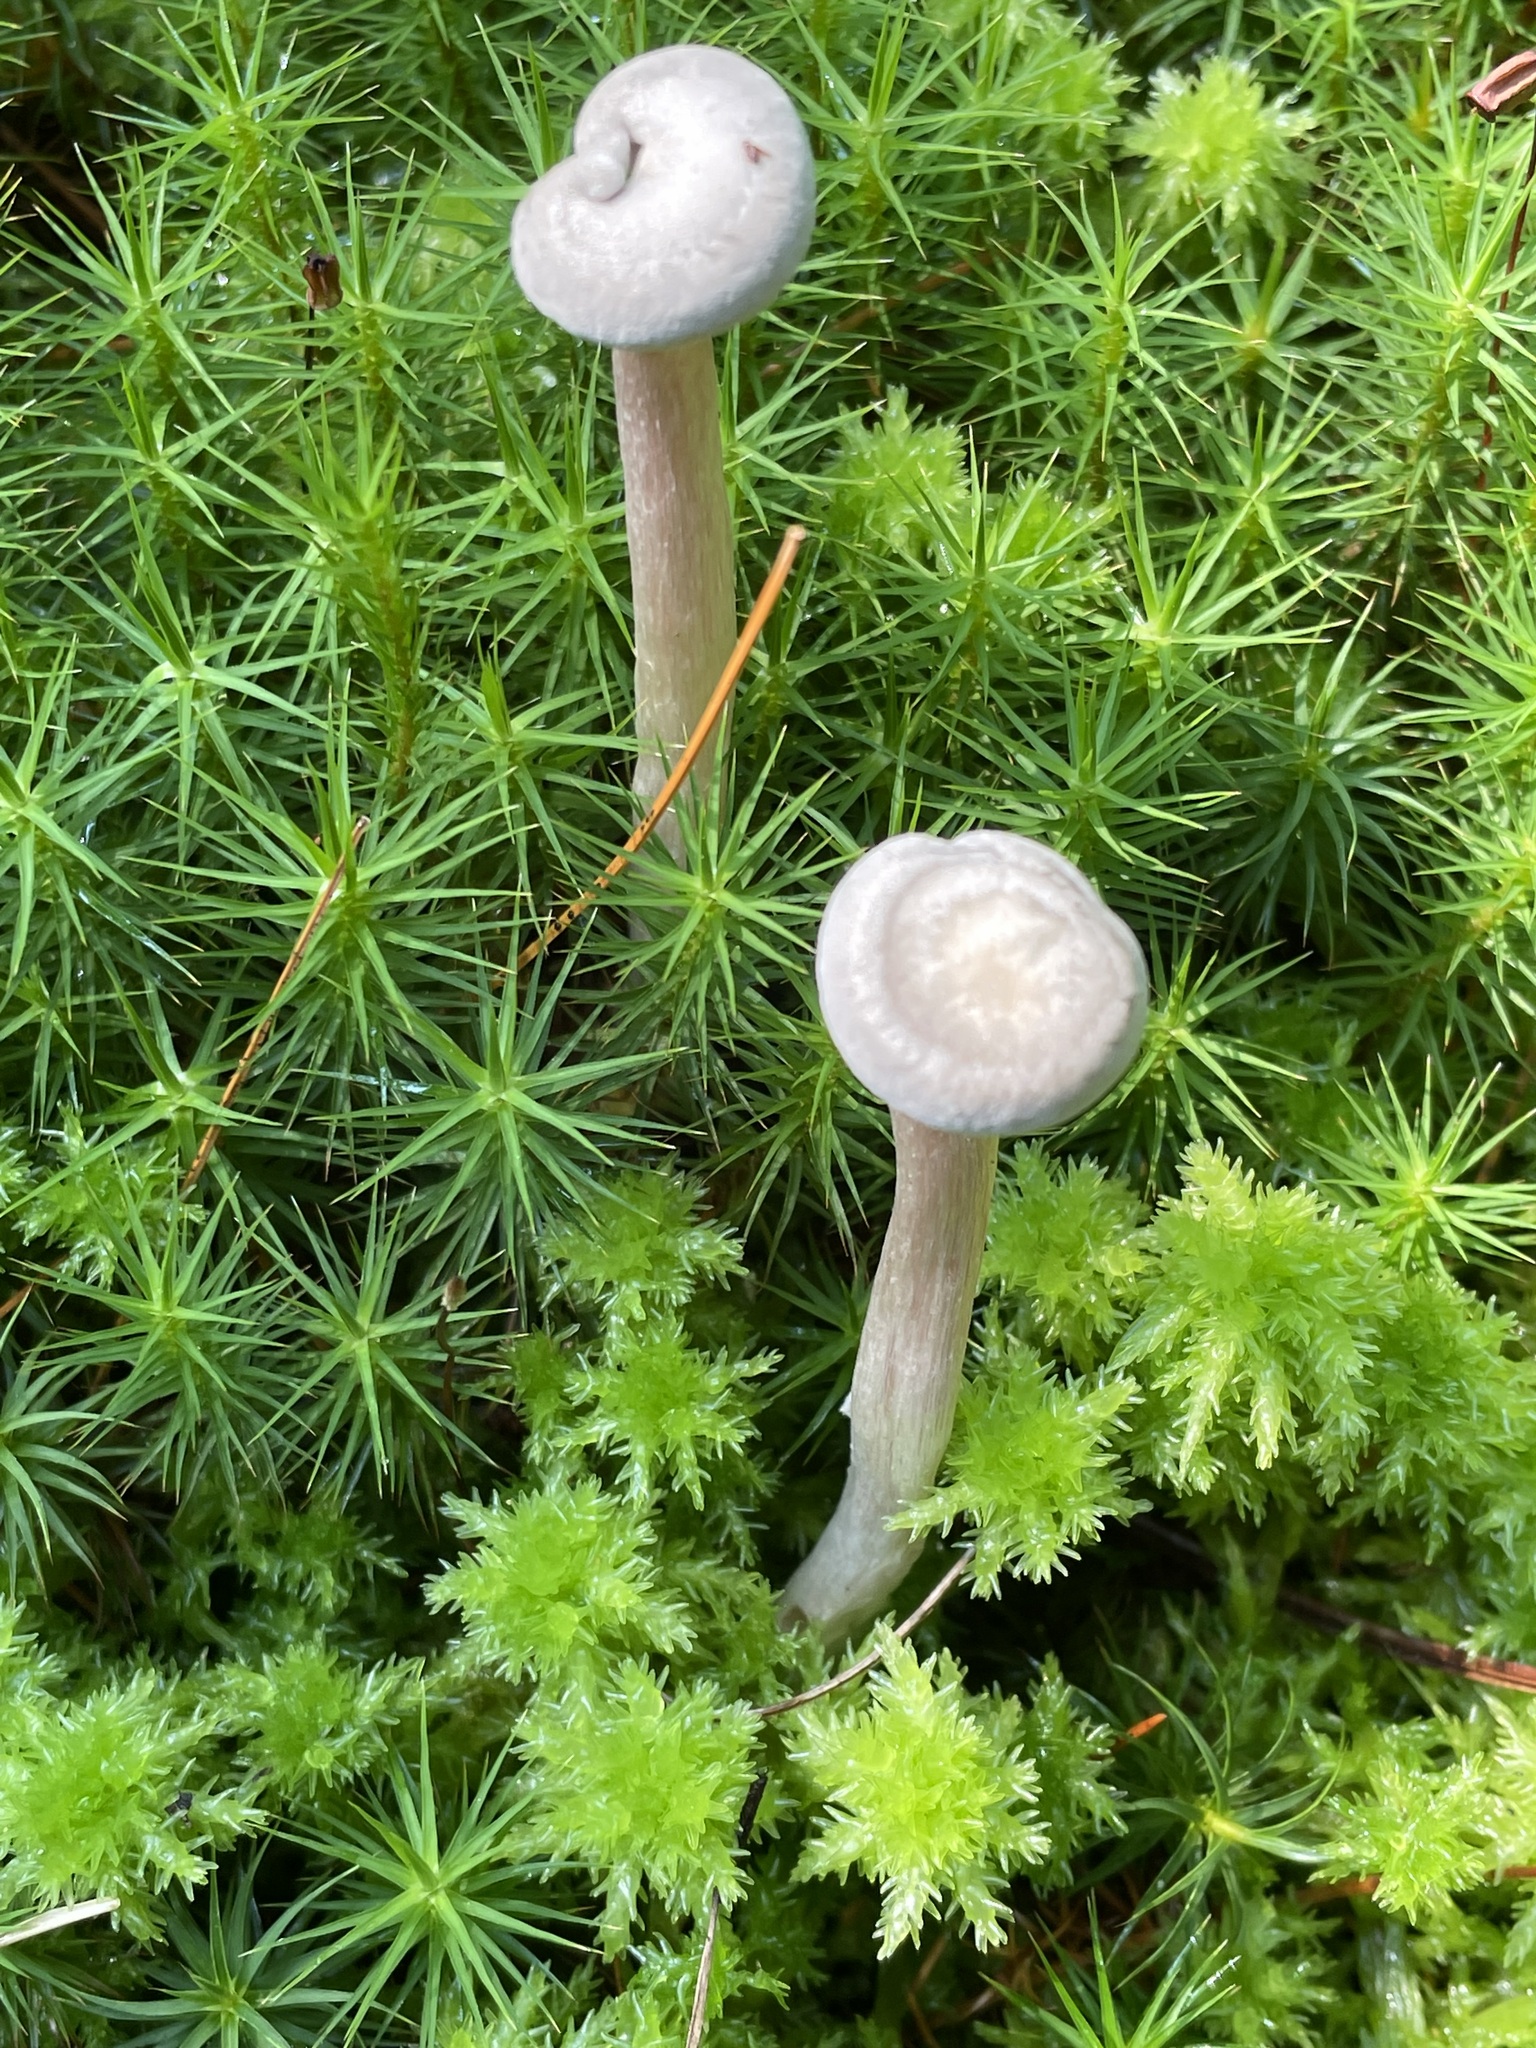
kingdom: Fungi
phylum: Basidiomycota
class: Agaricomycetes
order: Agaricales
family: Hygrophoraceae
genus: Cantharellula
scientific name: Cantharellula umbonata
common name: The humpback
